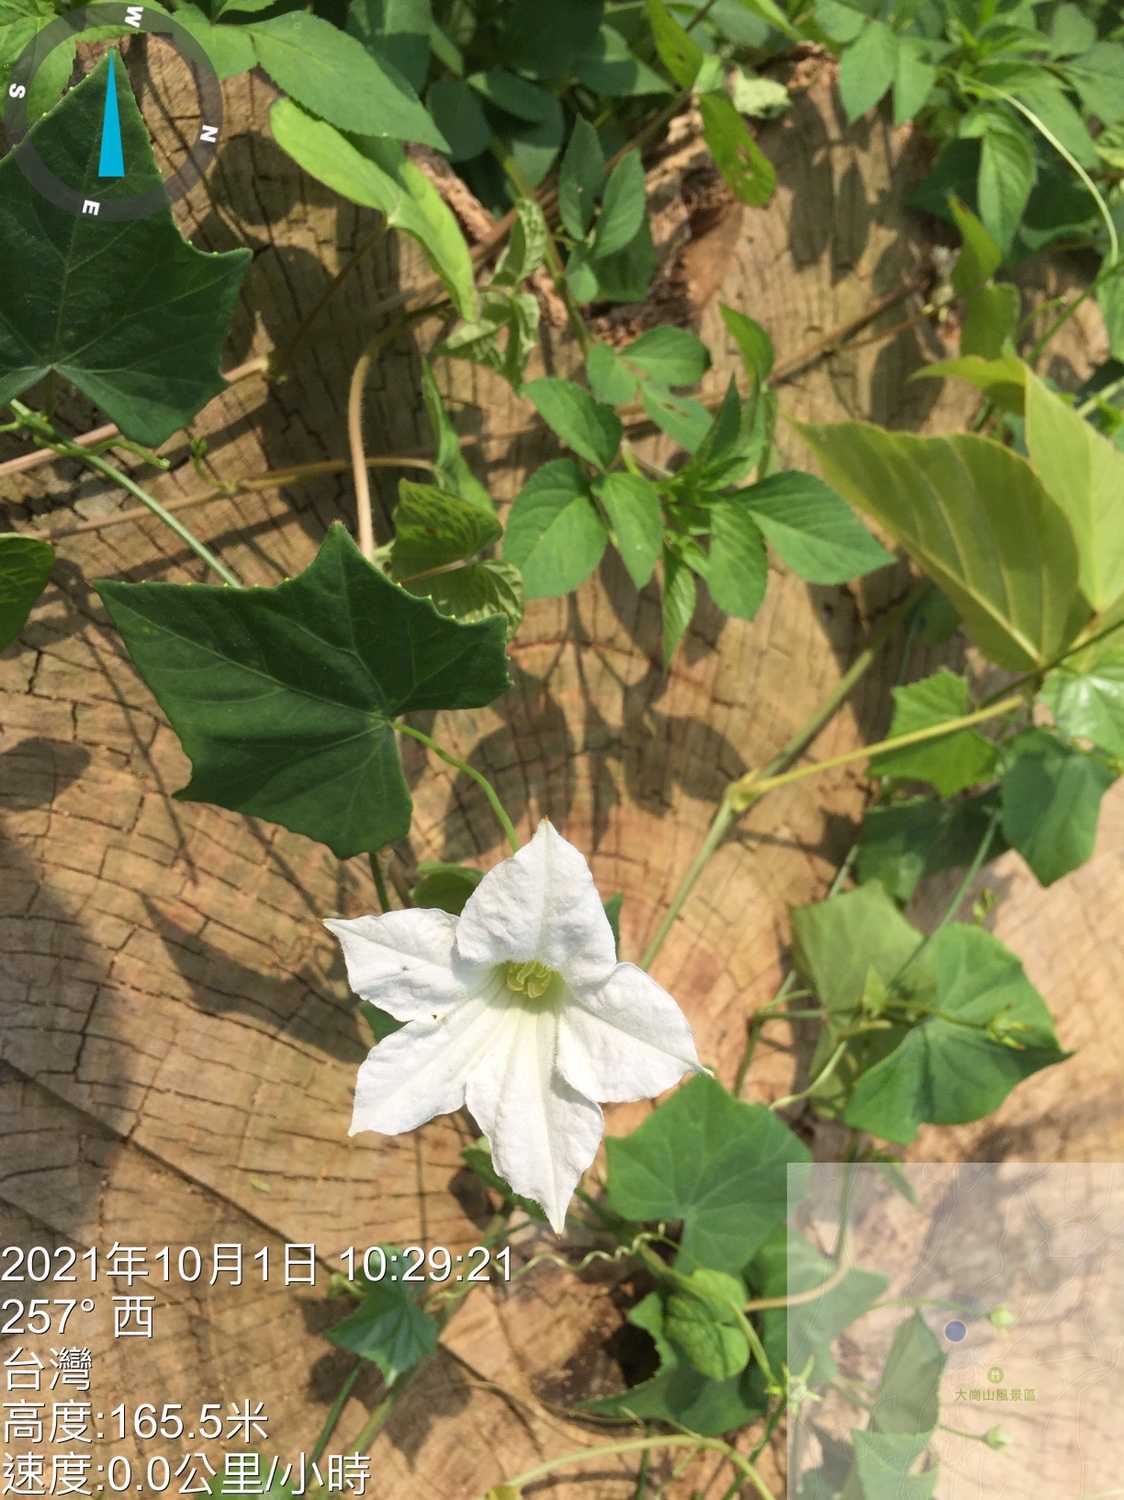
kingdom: Plantae
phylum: Tracheophyta
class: Magnoliopsida
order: Cucurbitales
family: Cucurbitaceae
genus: Coccinia
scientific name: Coccinia grandis
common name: Ivy gourd
